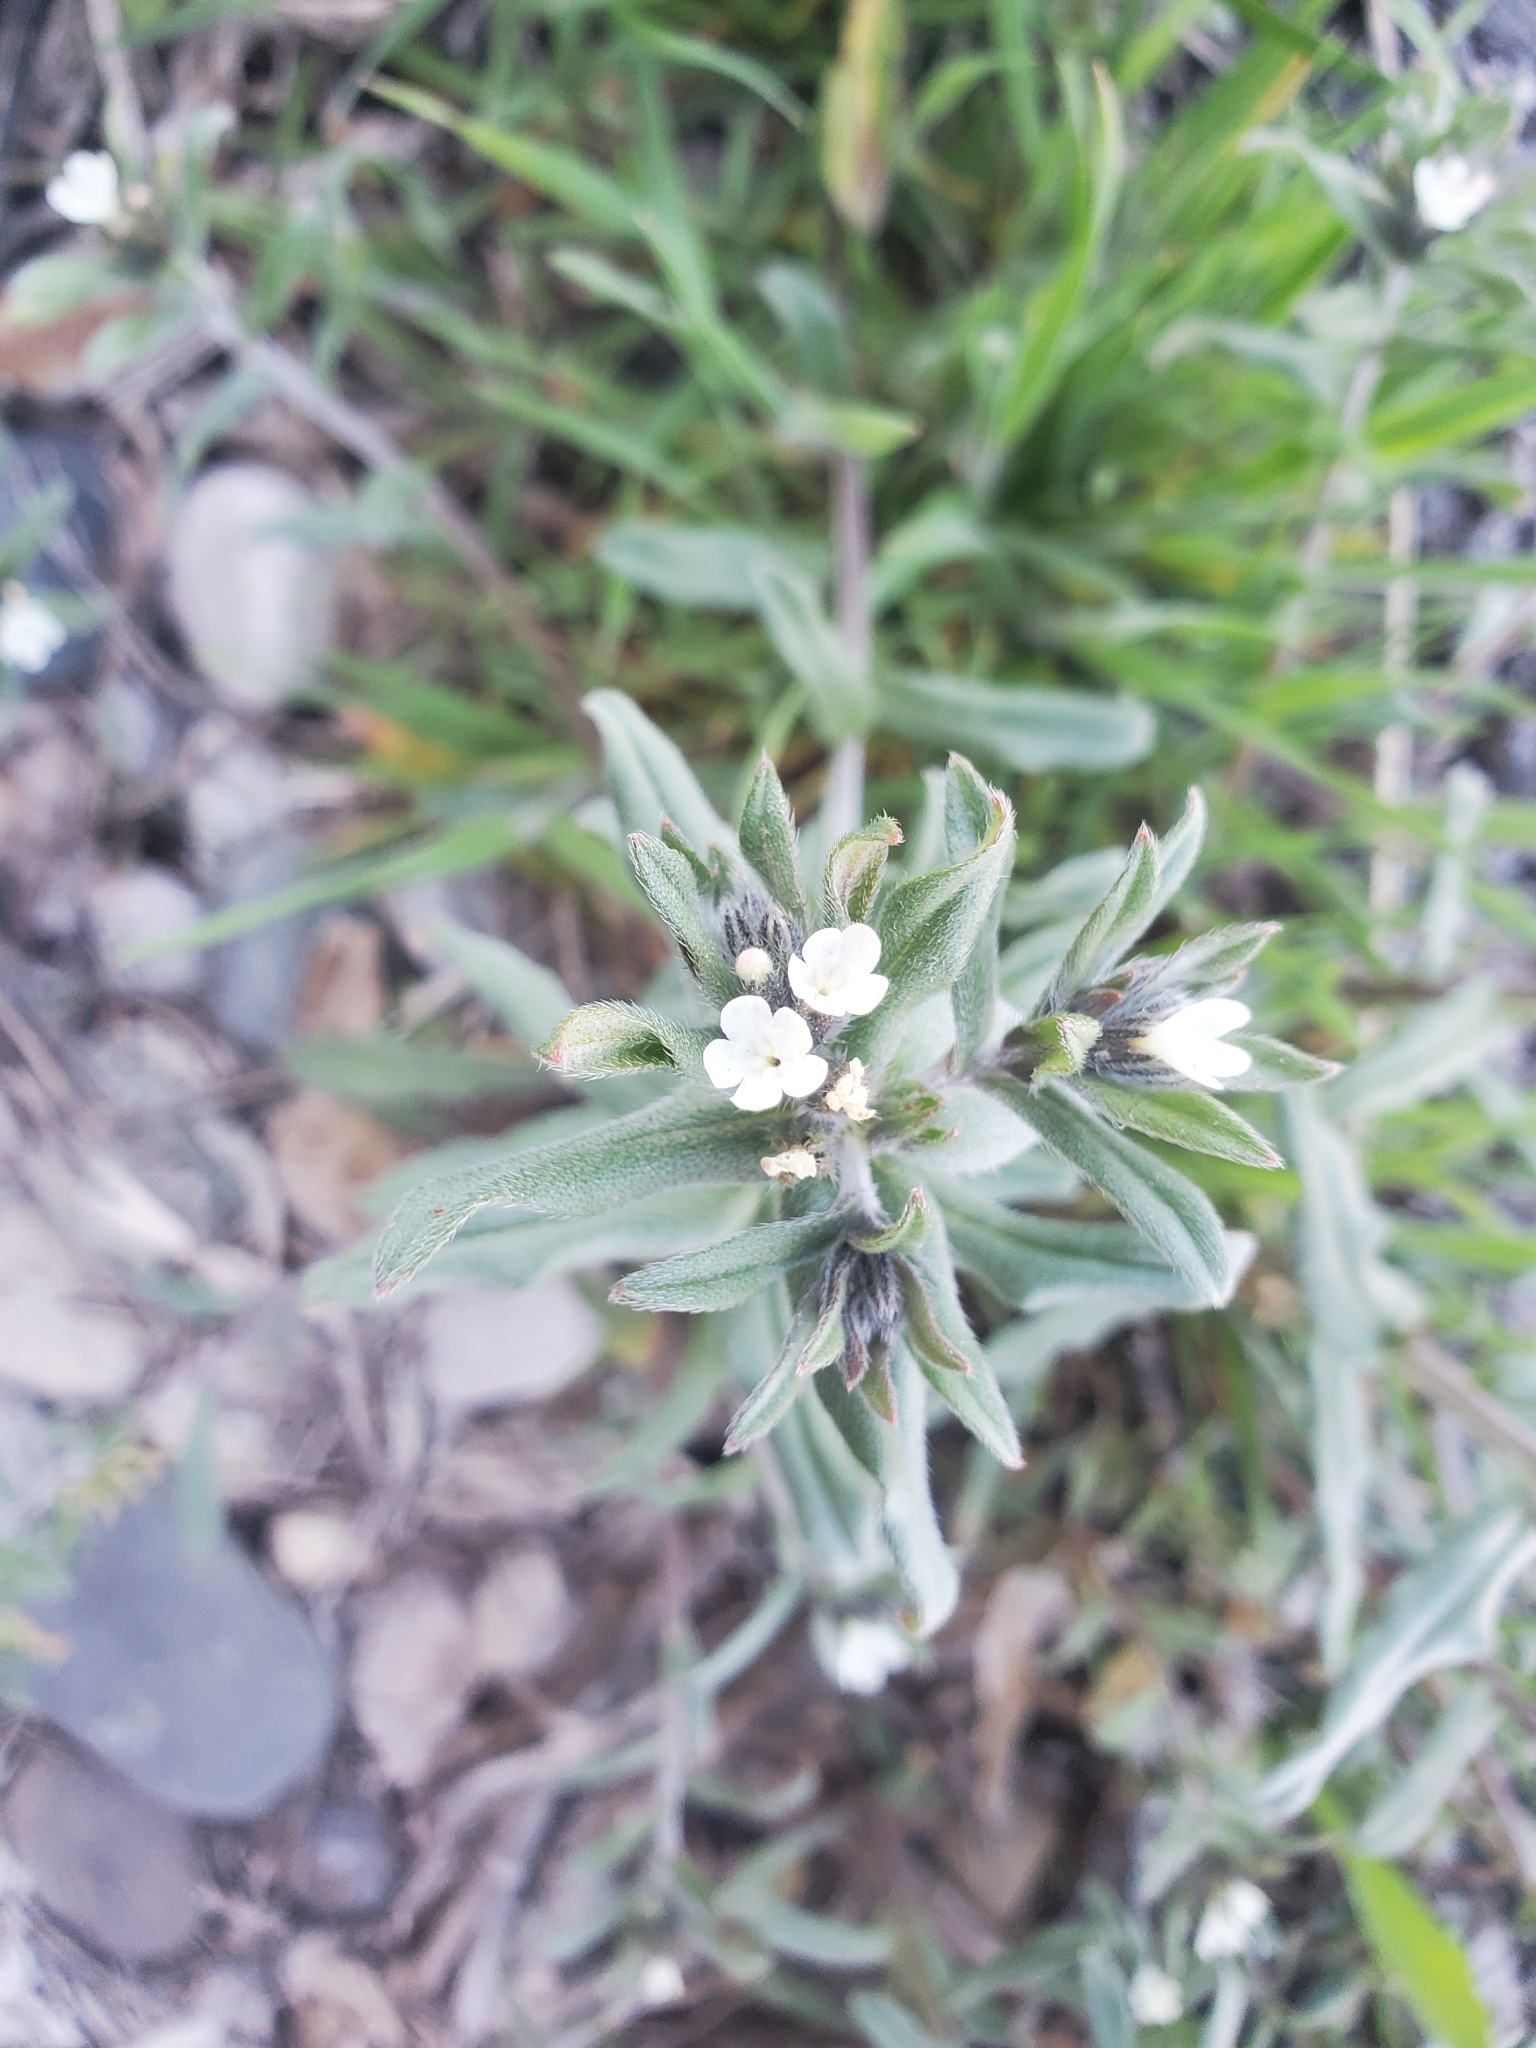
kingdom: Plantae
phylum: Tracheophyta
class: Magnoliopsida
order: Boraginales
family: Boraginaceae
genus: Buglossoides
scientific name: Buglossoides arvensis
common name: Corn gromwell
